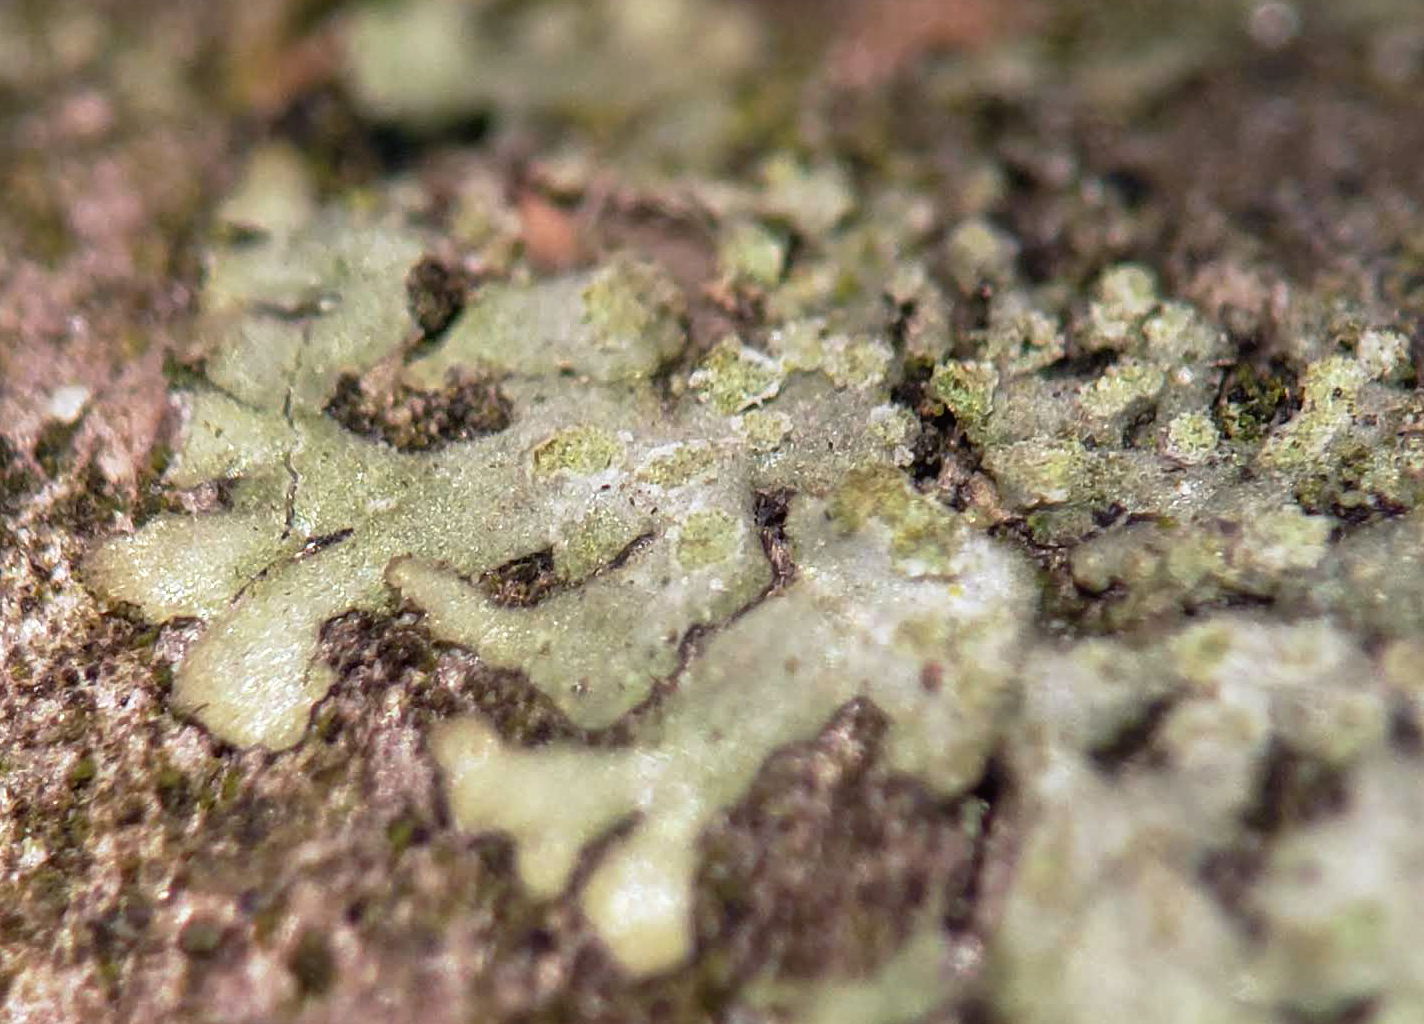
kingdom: Fungi
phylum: Ascomycota
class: Lecanoromycetes
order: Caliciales
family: Physciaceae
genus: Hyperphyscia
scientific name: Hyperphyscia adglutinata
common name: Grainy shadow-crust lichen
